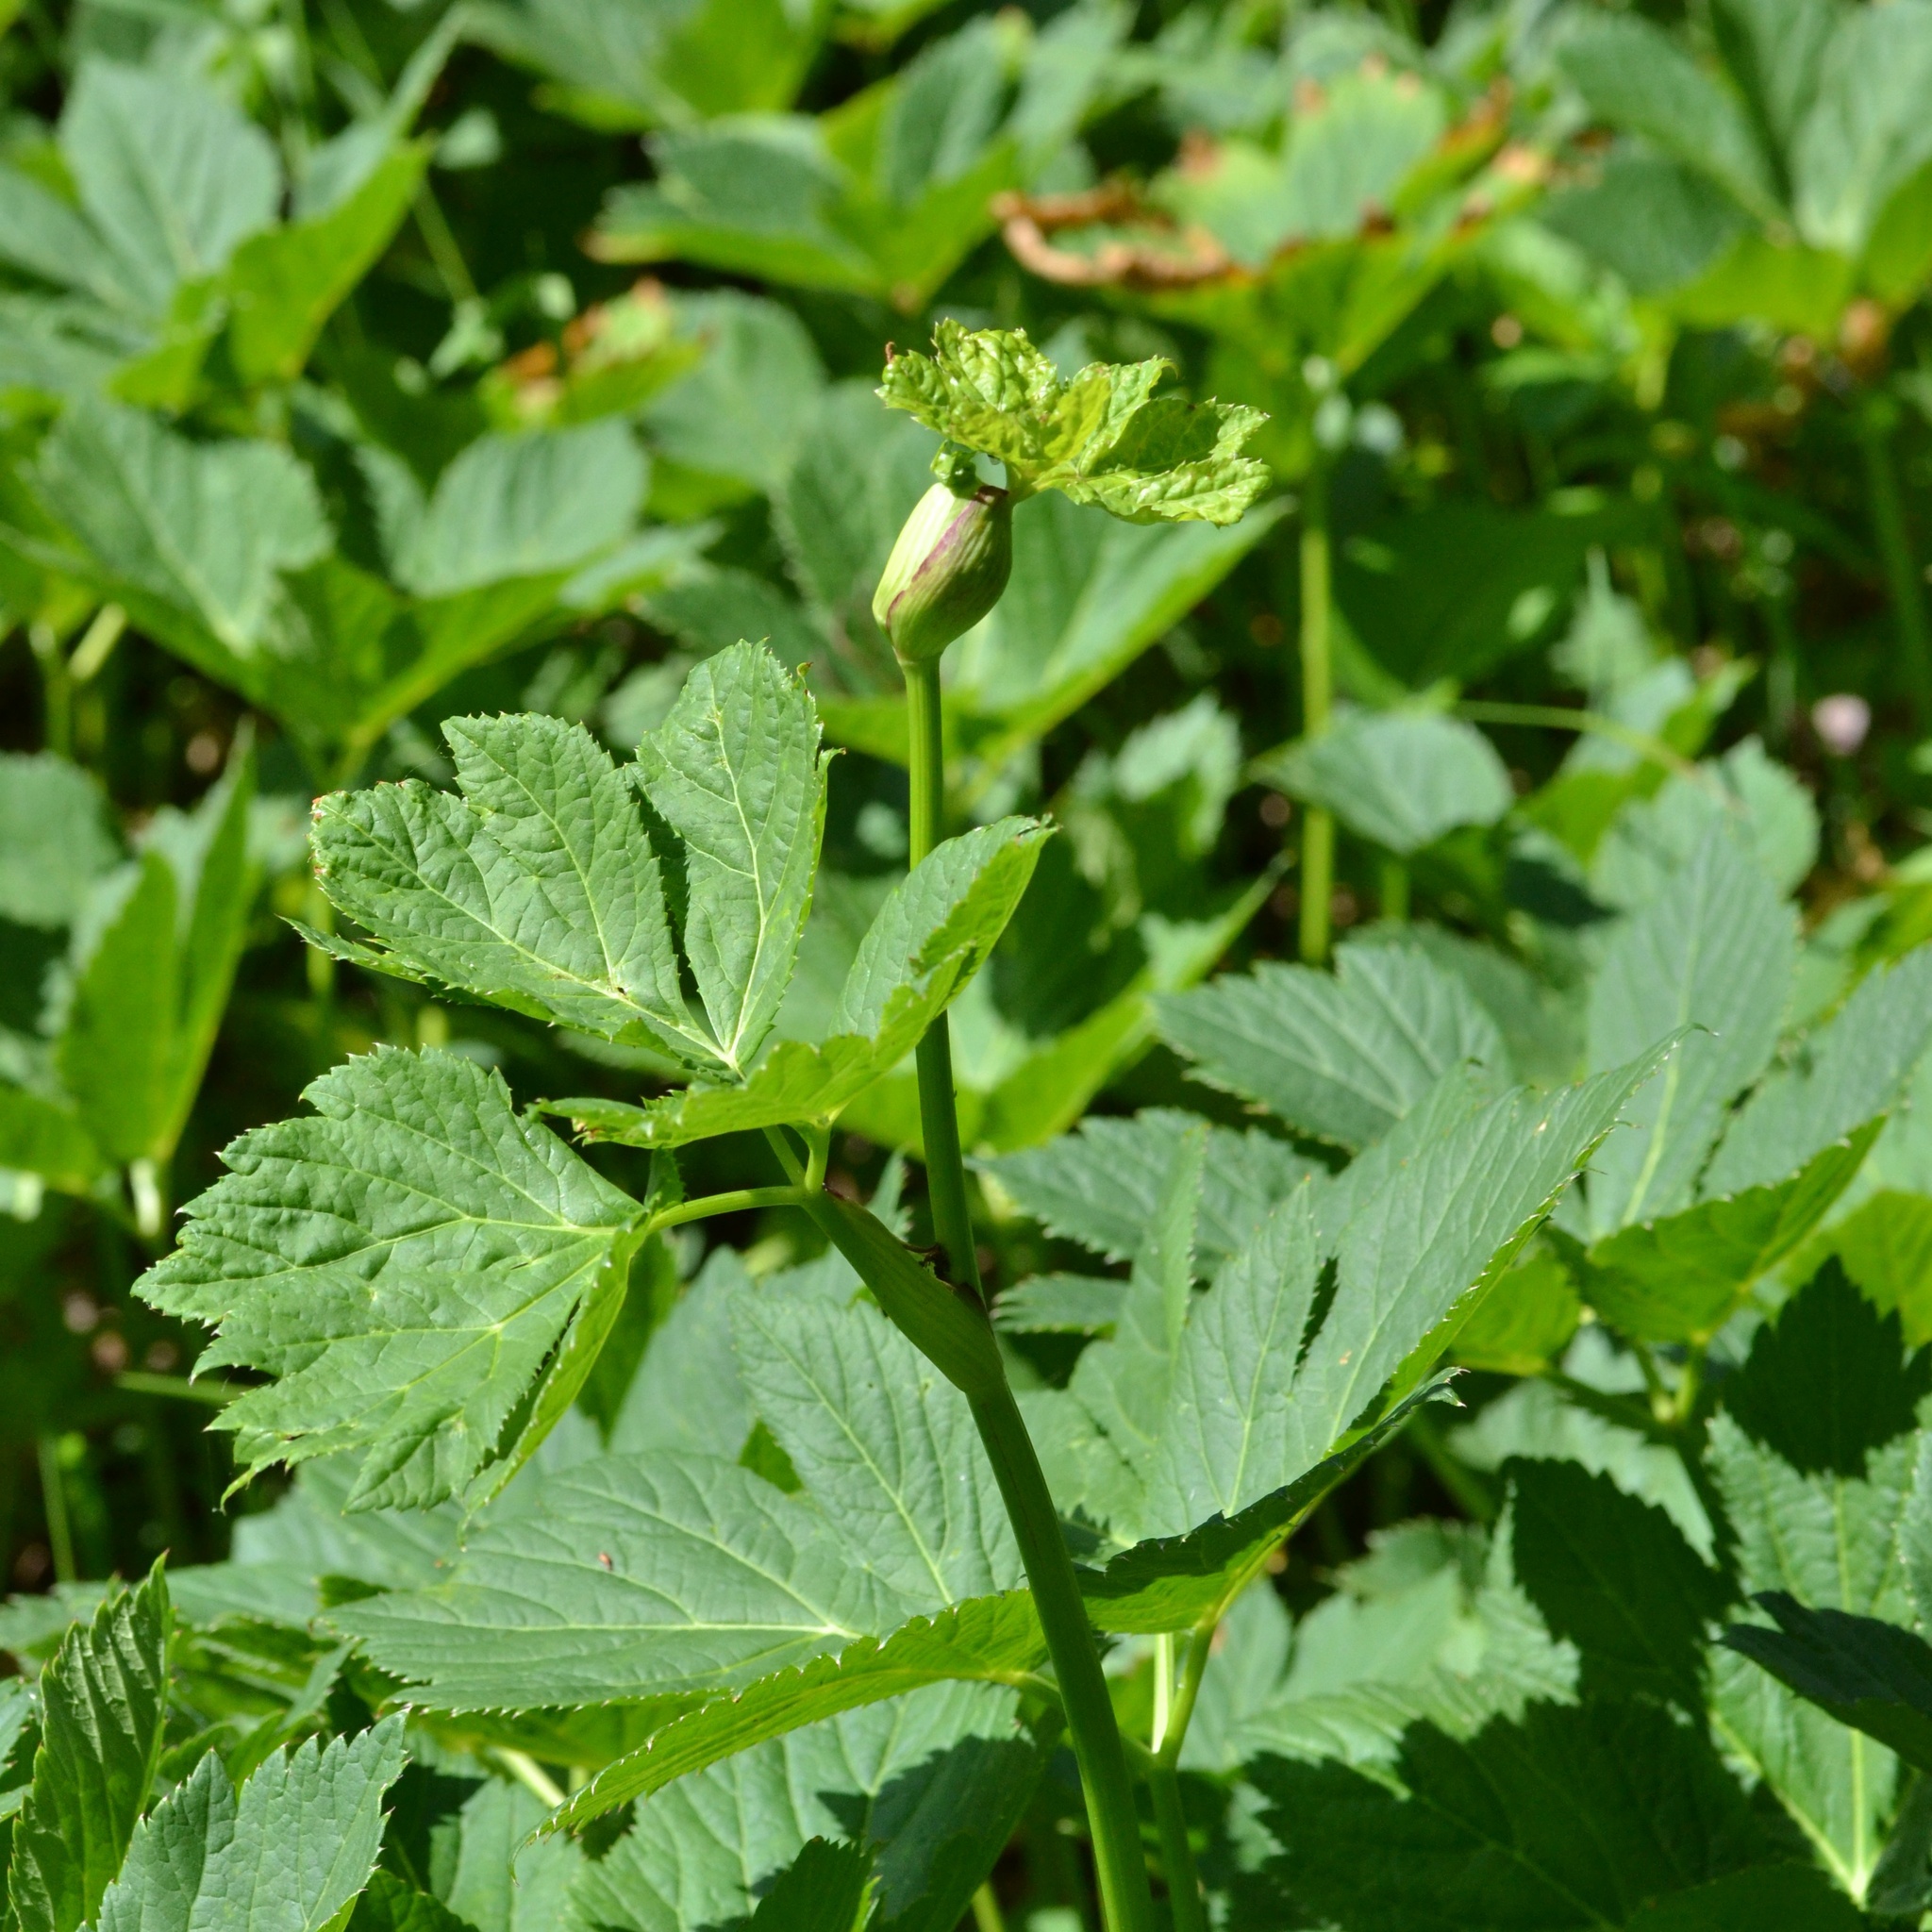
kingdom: Plantae
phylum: Tracheophyta
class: Magnoliopsida
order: Apiales
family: Apiaceae
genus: Imperatoria
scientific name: Imperatoria ostruthium
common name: Masterwort
